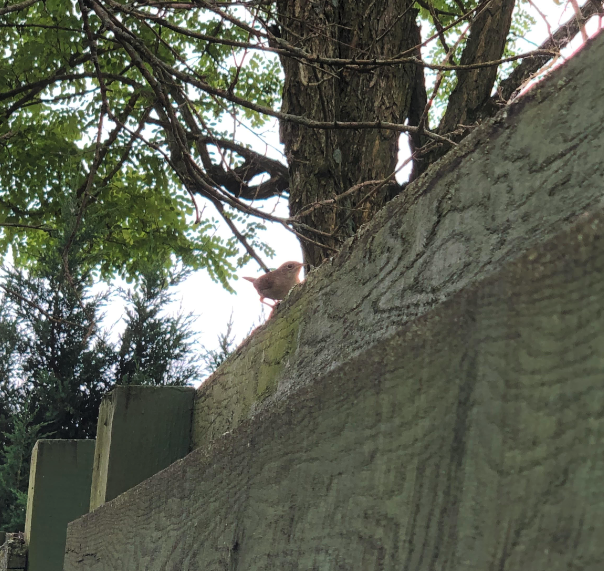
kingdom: Animalia
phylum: Chordata
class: Aves
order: Passeriformes
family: Troglodytidae
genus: Troglodytes
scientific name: Troglodytes aedon
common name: House wren
